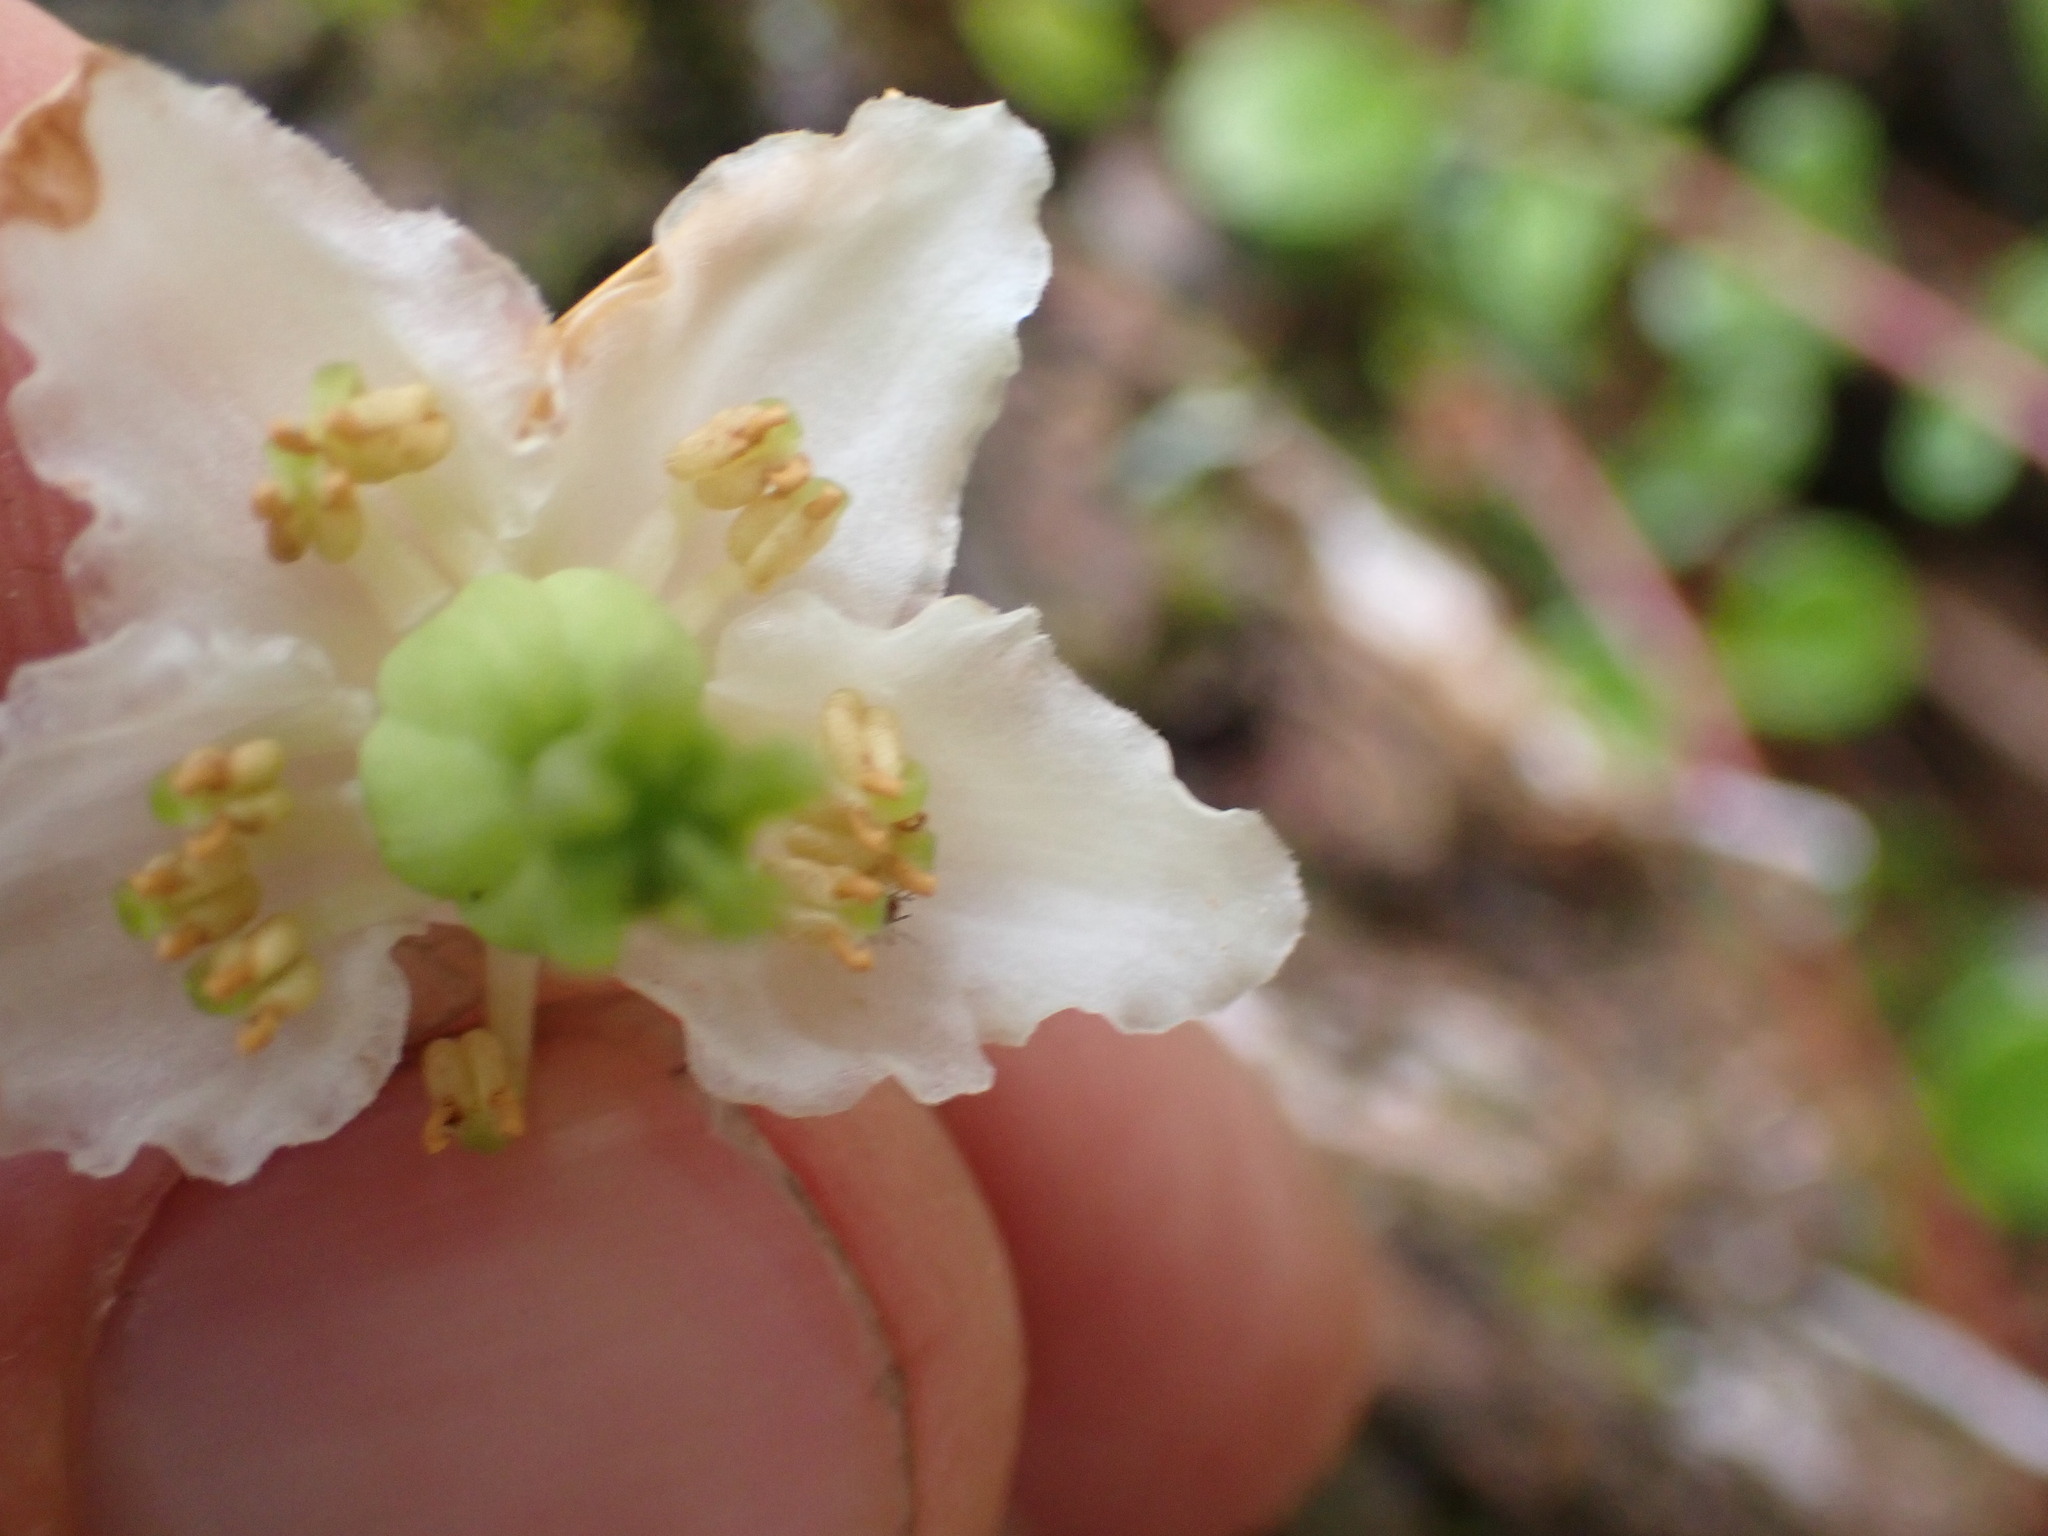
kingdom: Plantae
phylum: Tracheophyta
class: Magnoliopsida
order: Ericales
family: Ericaceae
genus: Moneses
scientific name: Moneses uniflora
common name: One-flowered wintergreen
